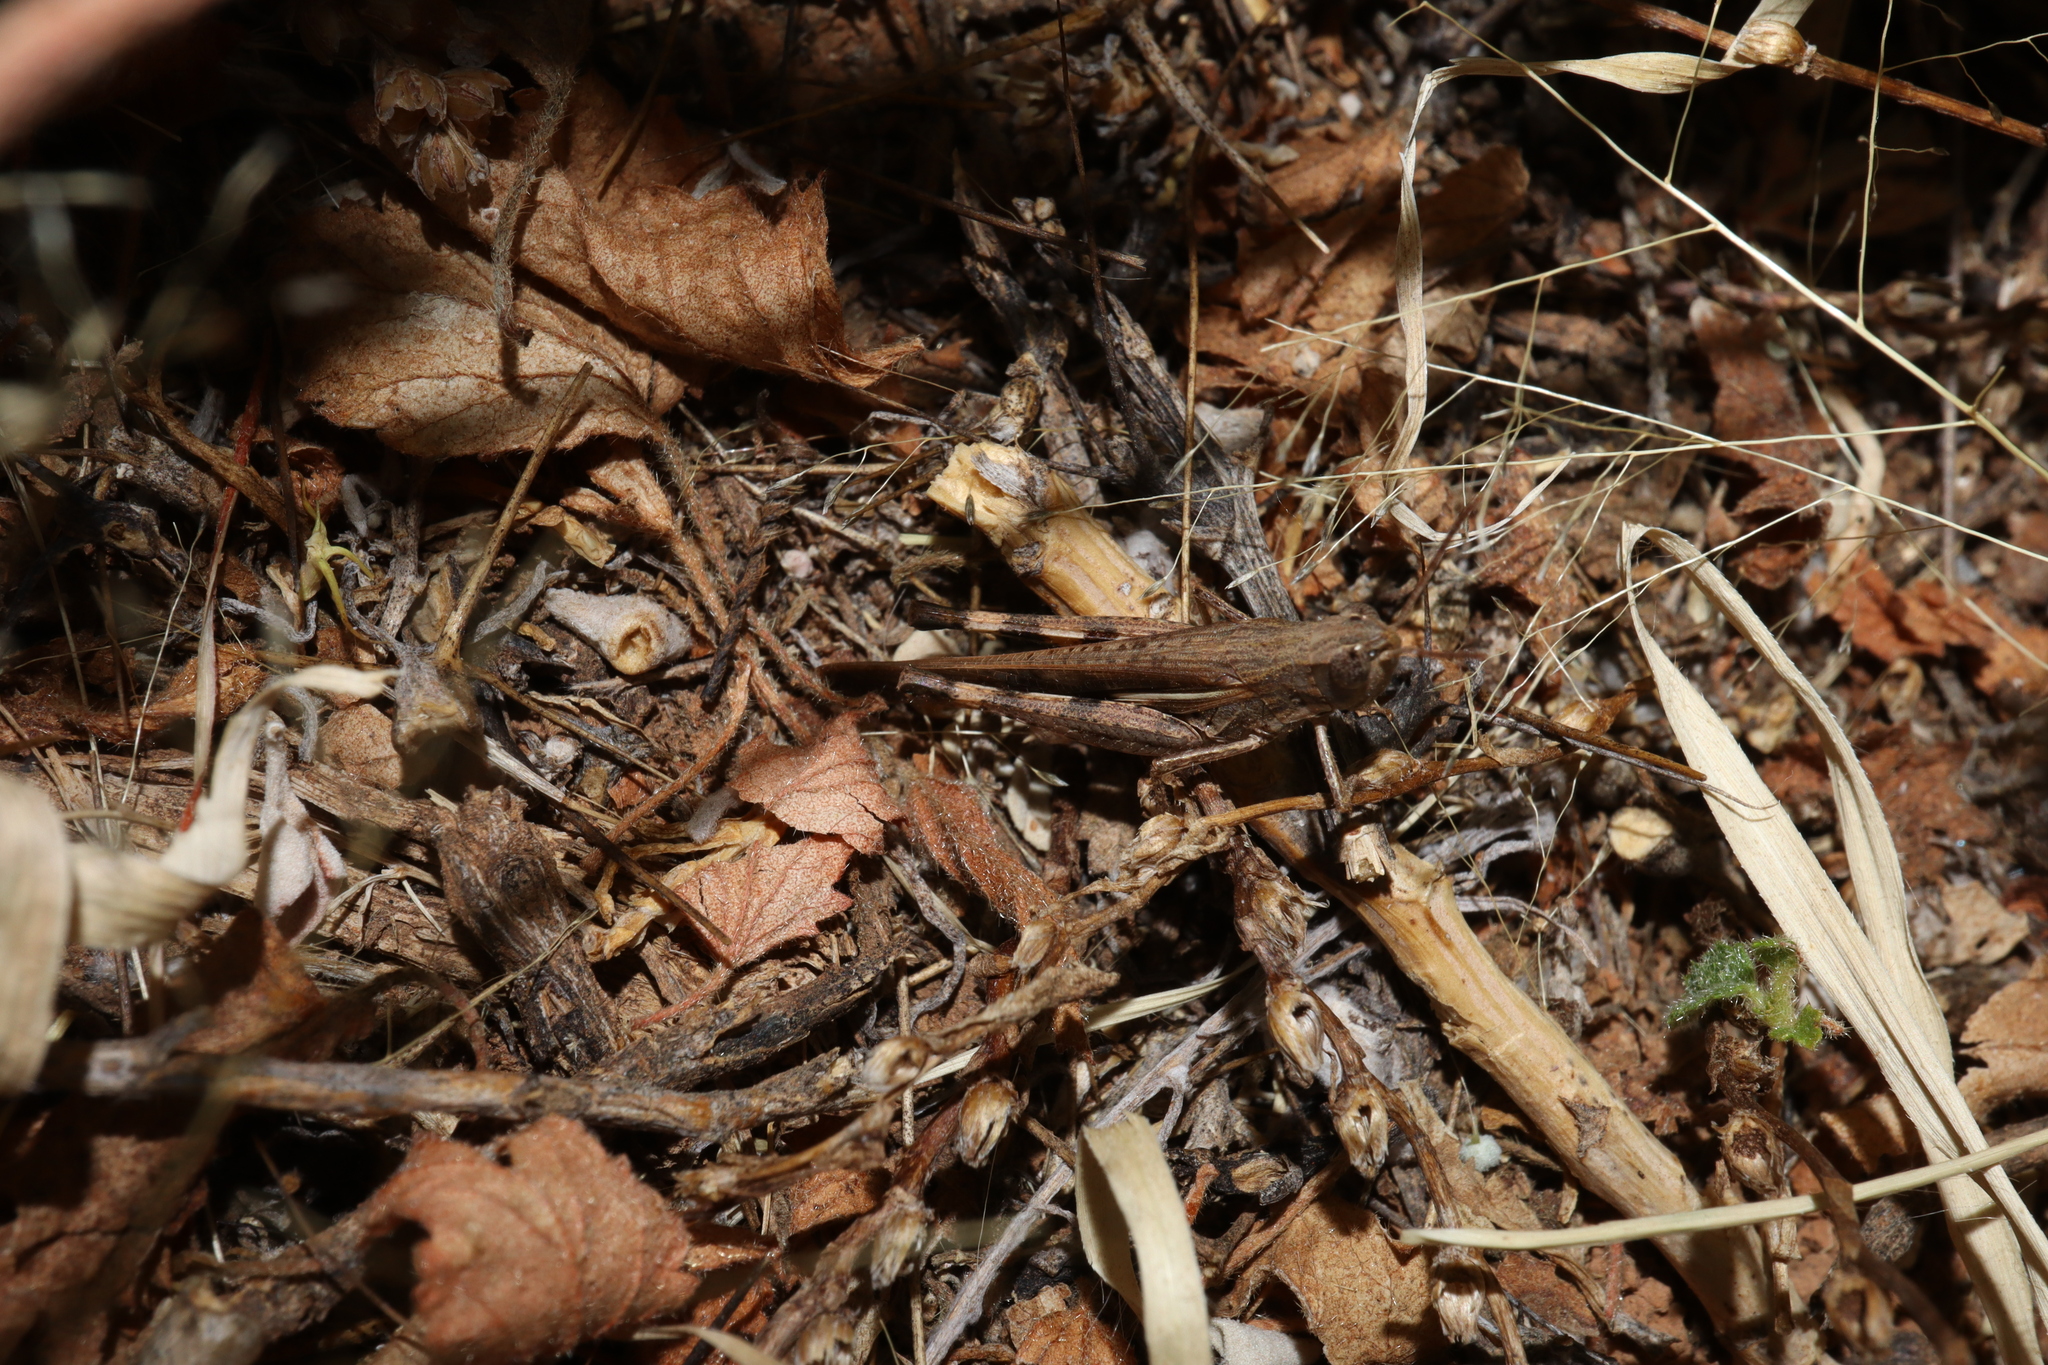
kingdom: Animalia
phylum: Arthropoda
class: Insecta
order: Orthoptera
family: Acrididae
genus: Aiolopus
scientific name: Aiolopus thalassinus
